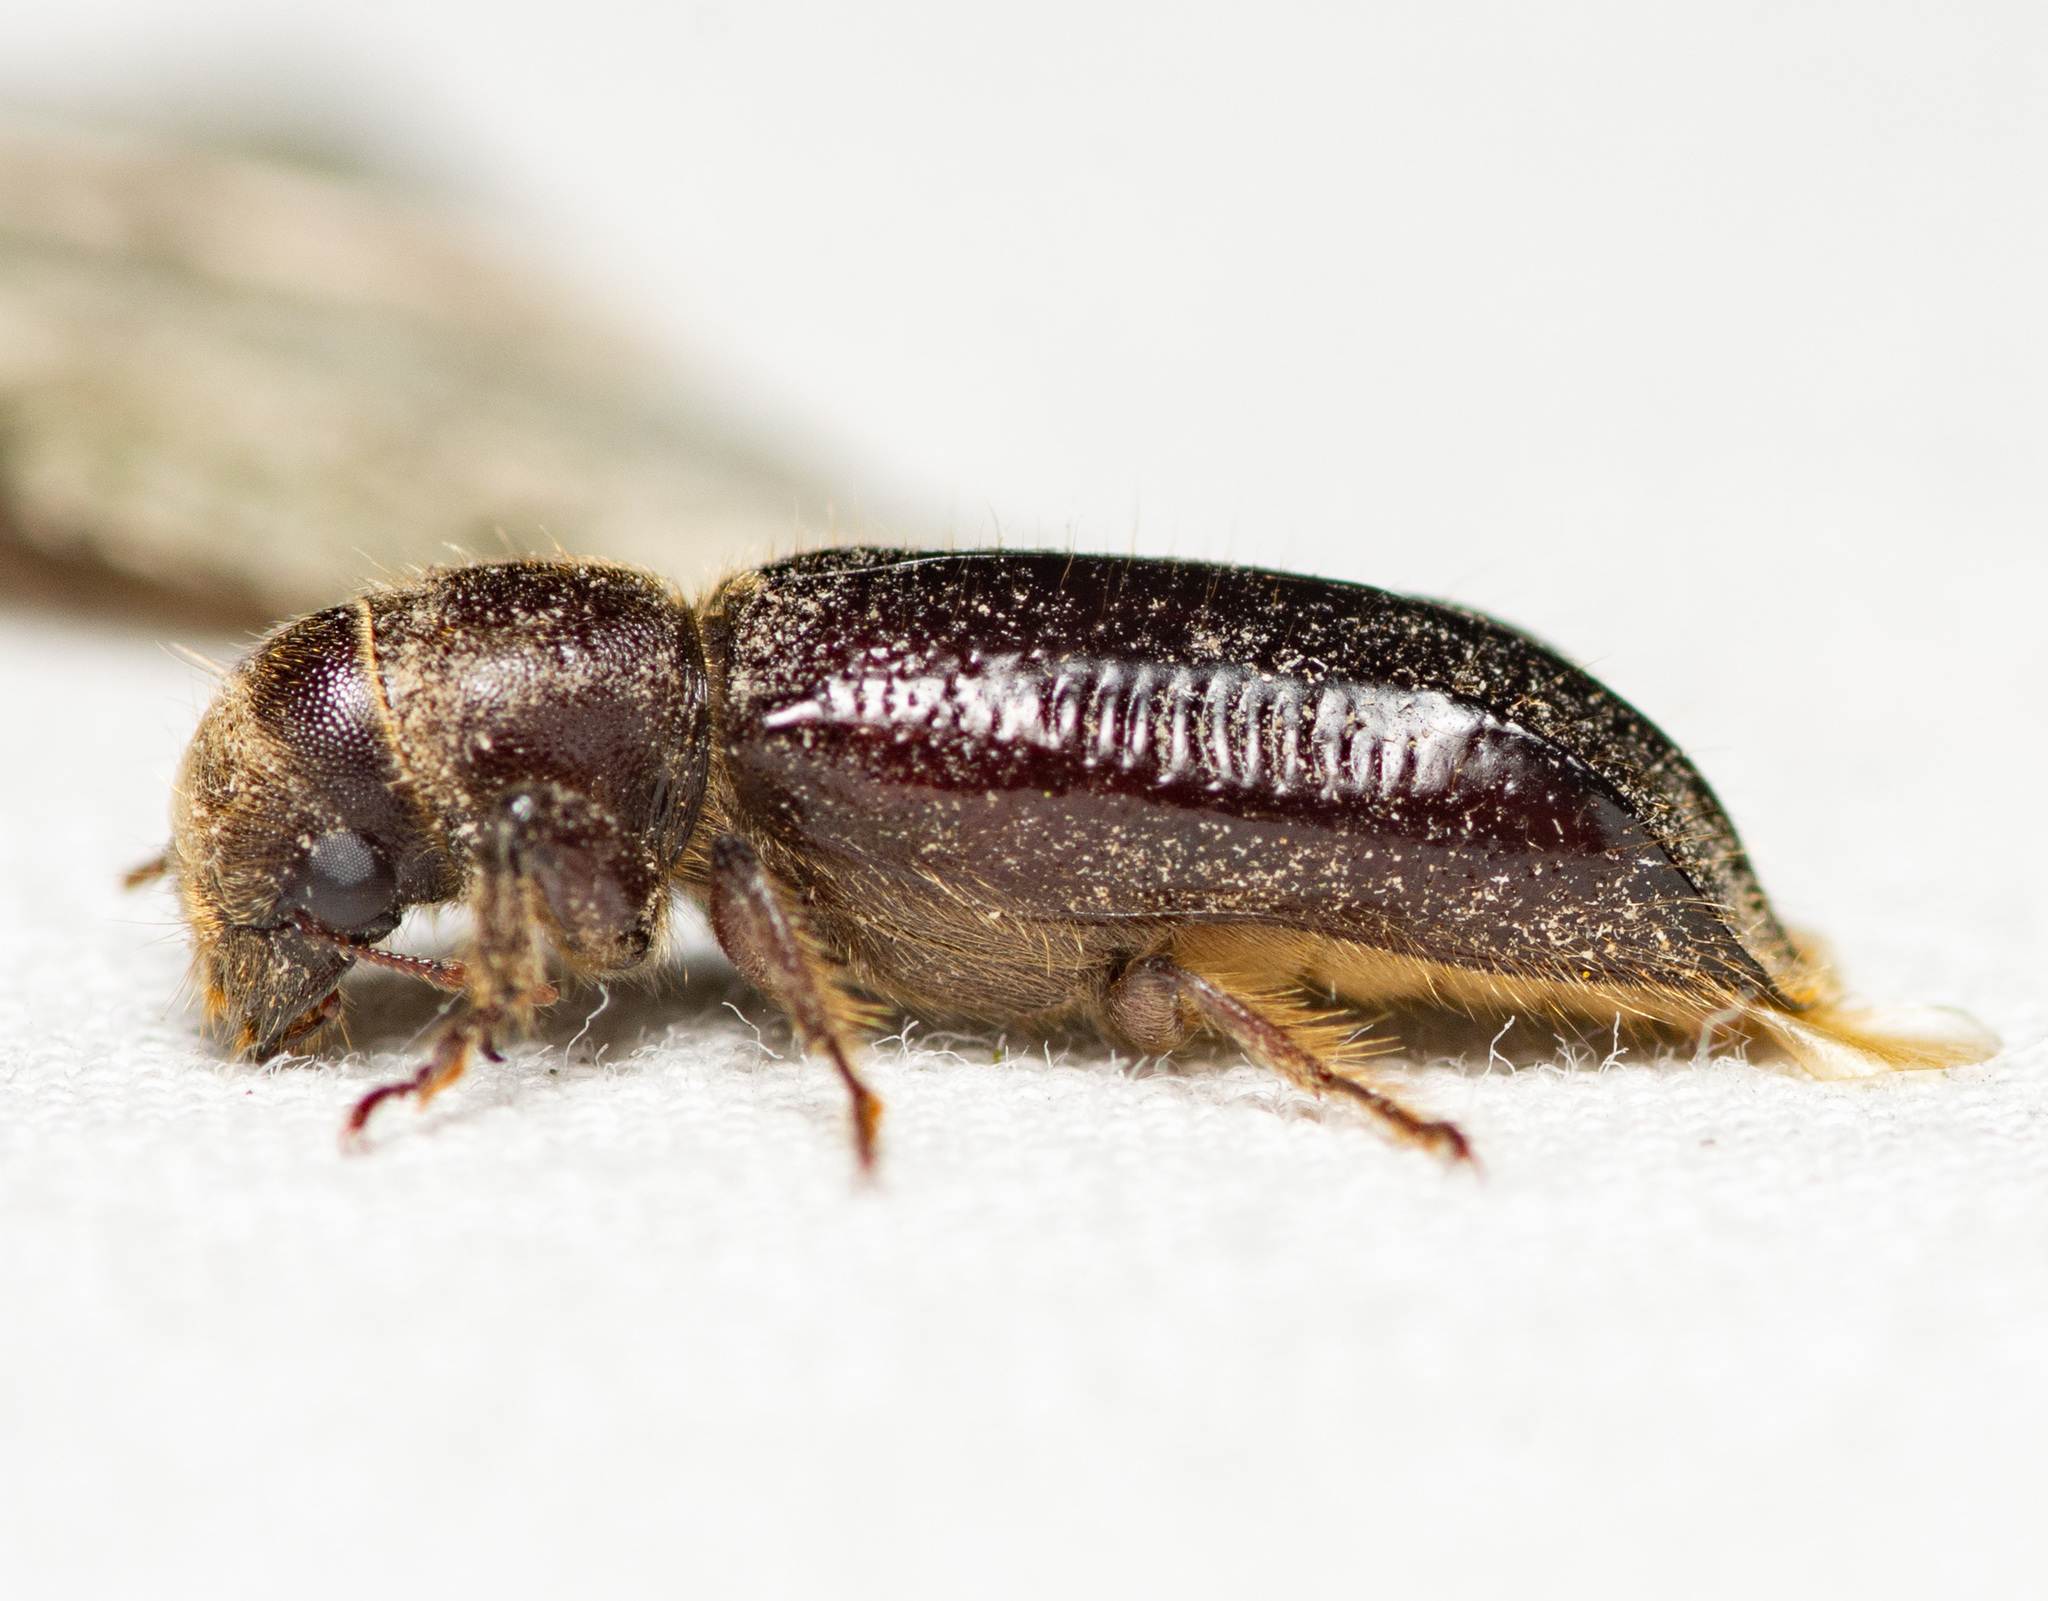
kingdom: Animalia
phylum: Arthropoda
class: Insecta
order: Coleoptera
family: Bostrichidae
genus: Melalgus
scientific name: Melalgus plicatus
